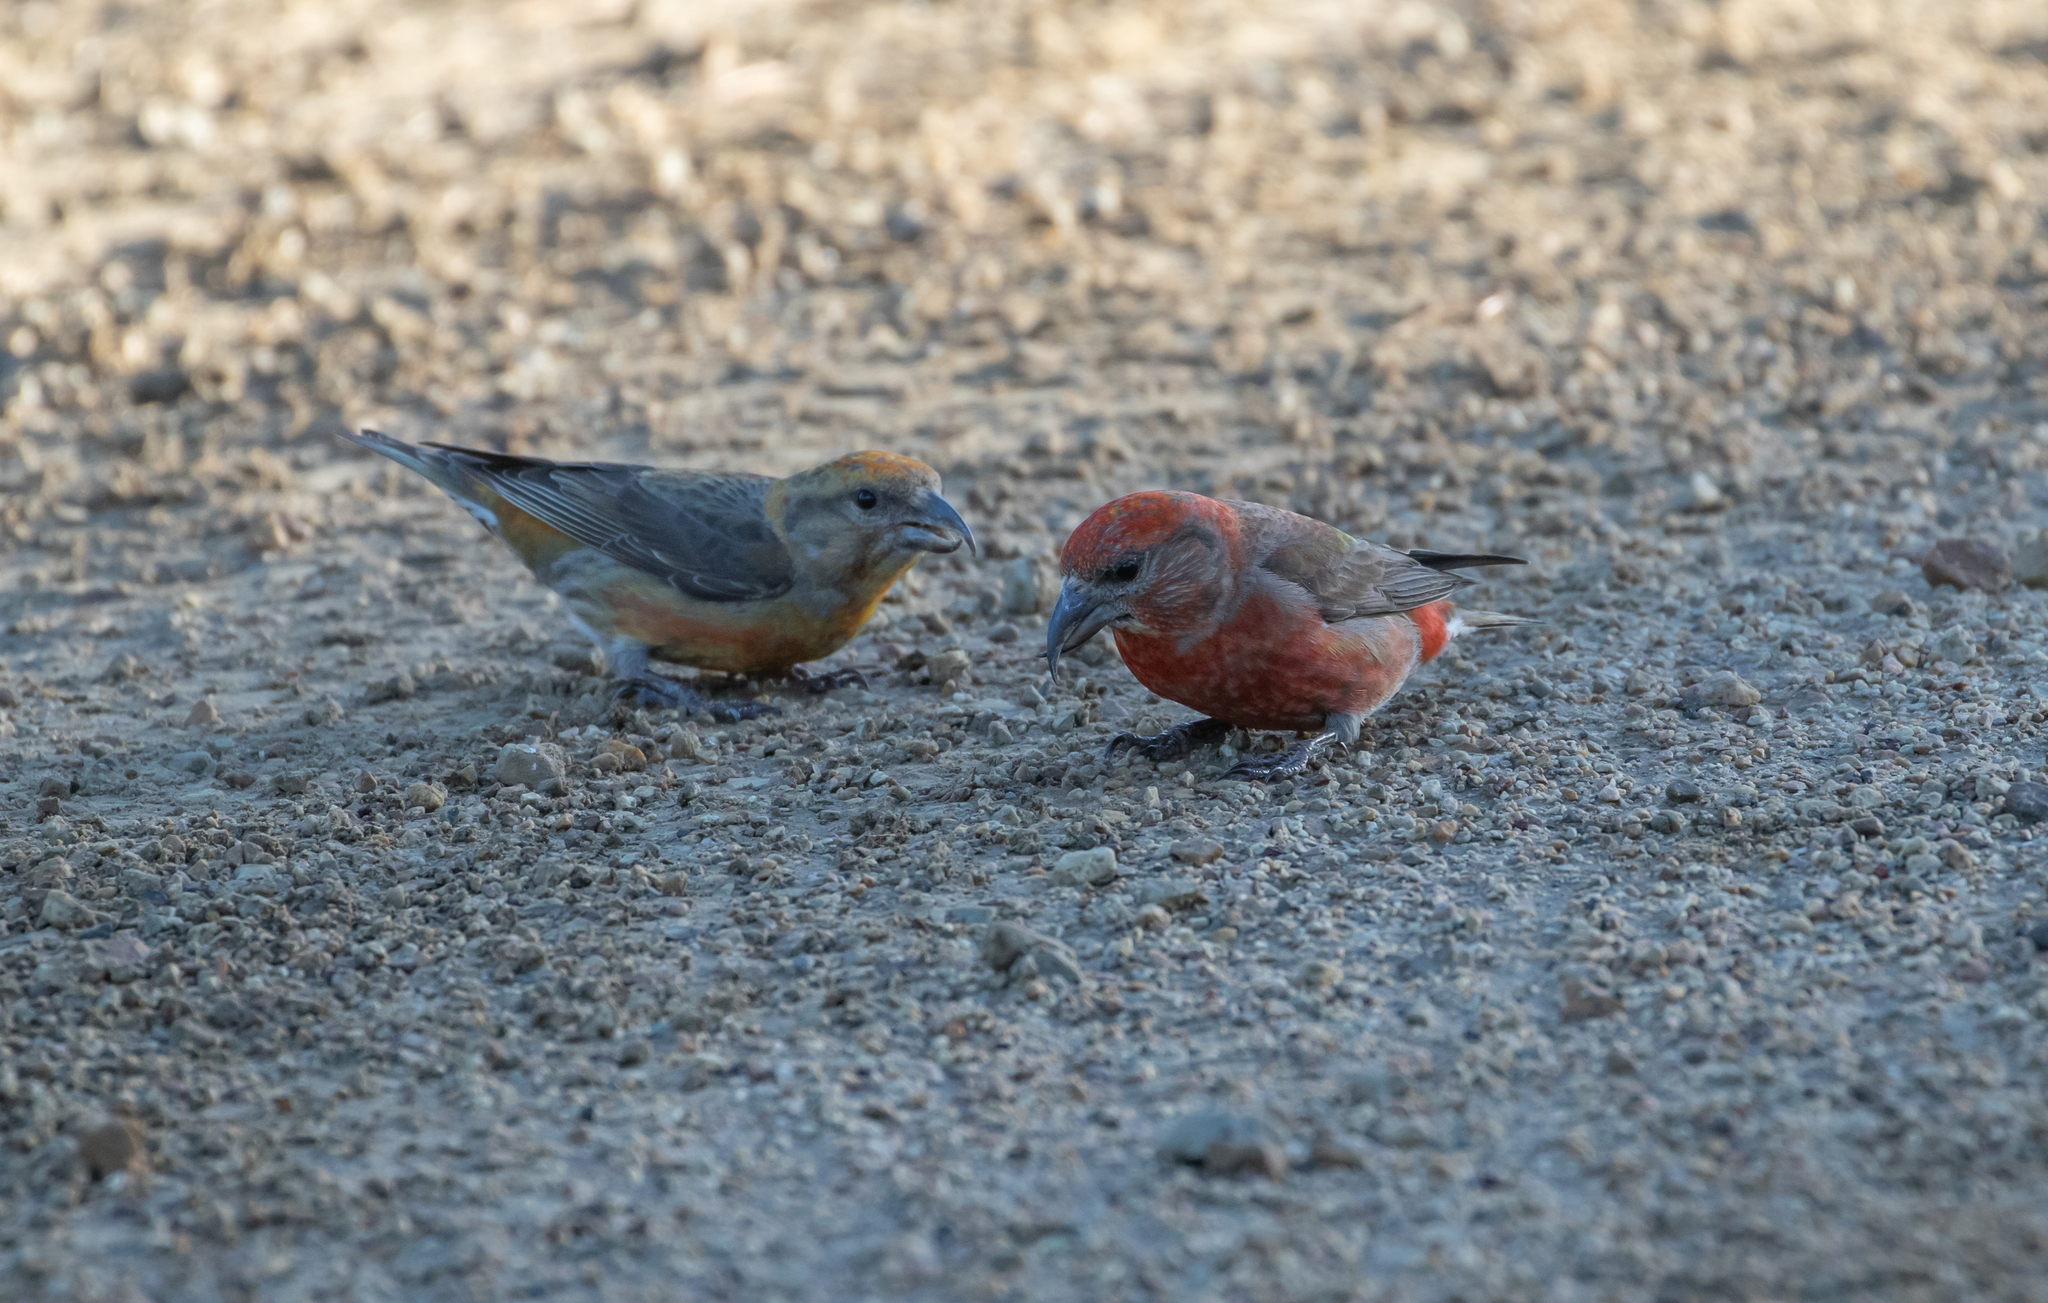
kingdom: Animalia
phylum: Chordata
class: Aves
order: Passeriformes
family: Fringillidae
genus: Loxia
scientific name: Loxia curvirostra
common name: Red crossbill
